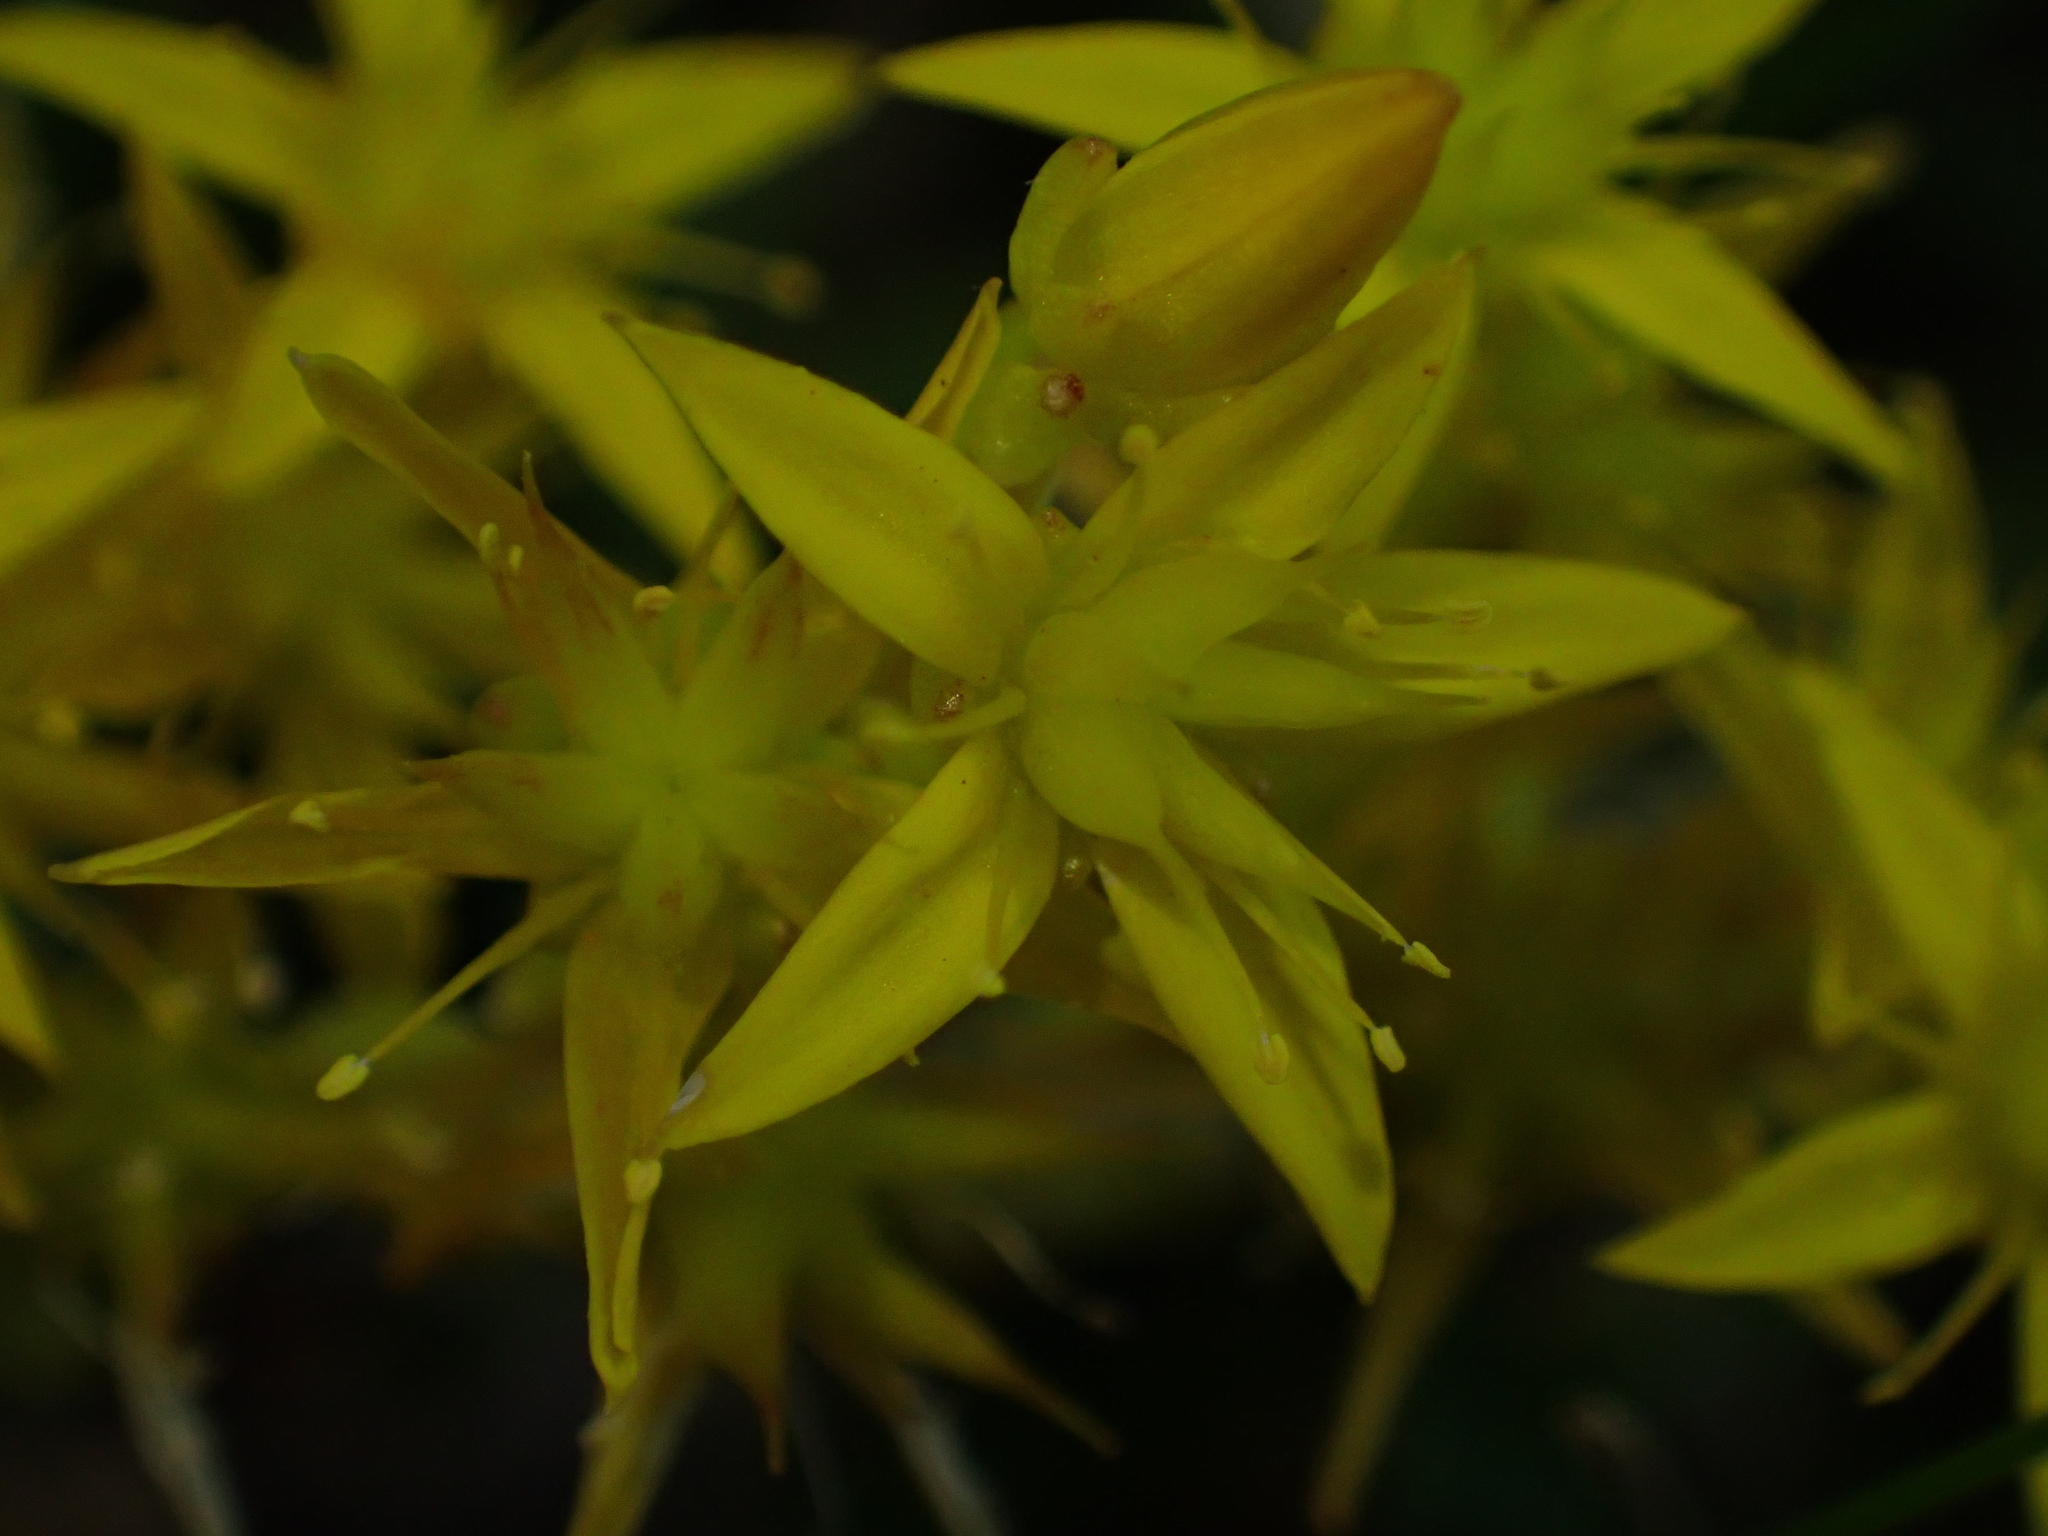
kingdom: Plantae
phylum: Tracheophyta
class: Magnoliopsida
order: Saxifragales
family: Crassulaceae
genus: Sedum
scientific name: Sedum acre
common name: Biting stonecrop
